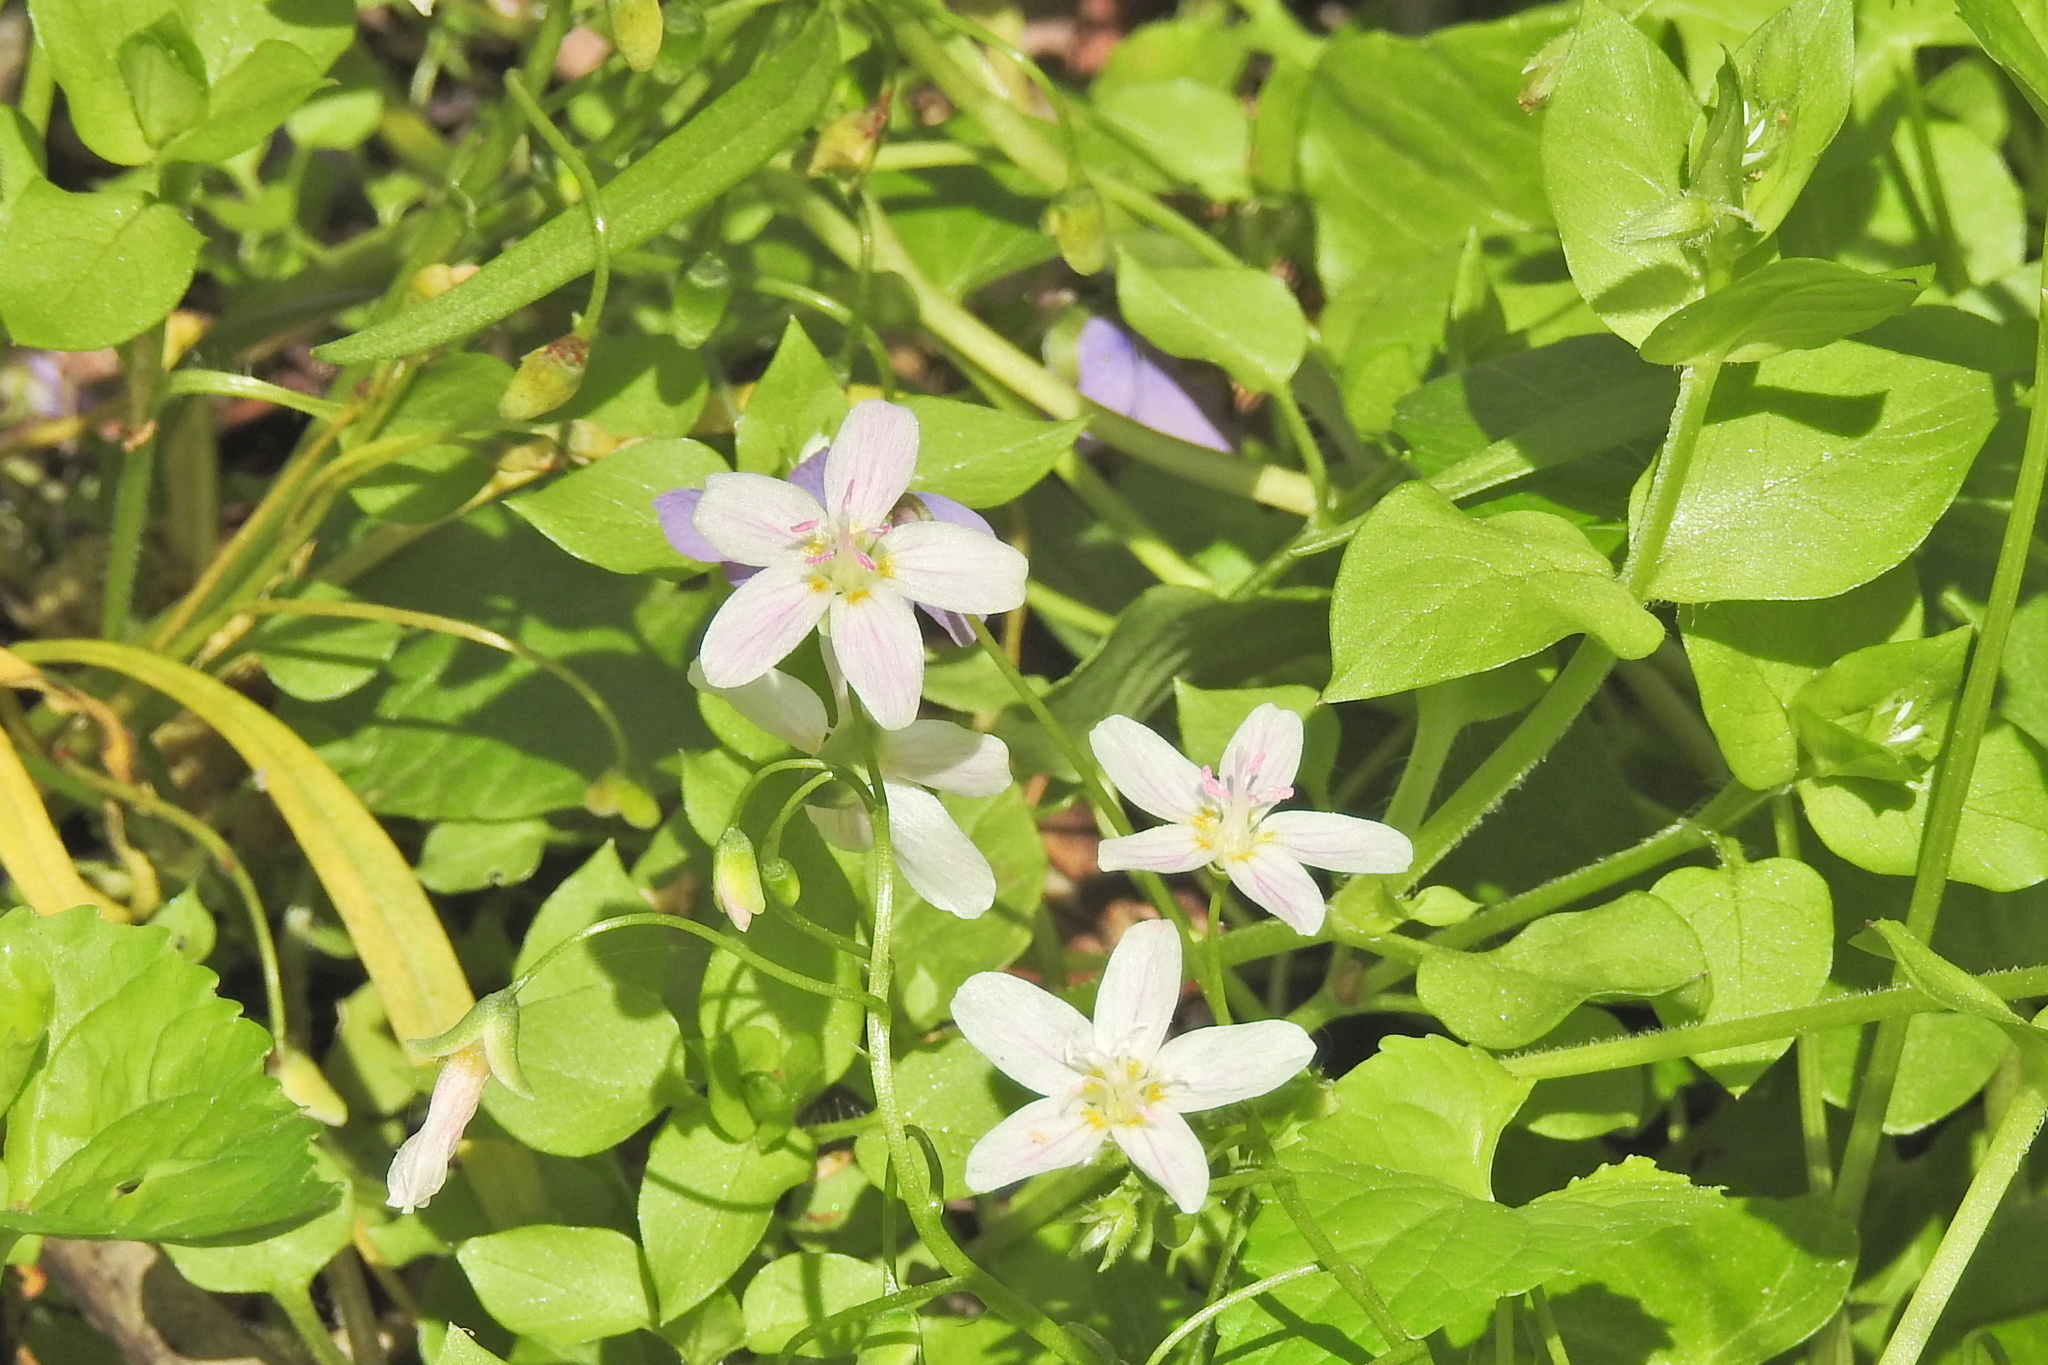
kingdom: Plantae
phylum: Tracheophyta
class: Magnoliopsida
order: Caryophyllales
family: Montiaceae
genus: Claytonia
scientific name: Claytonia virginica
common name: Virginia springbeauty
